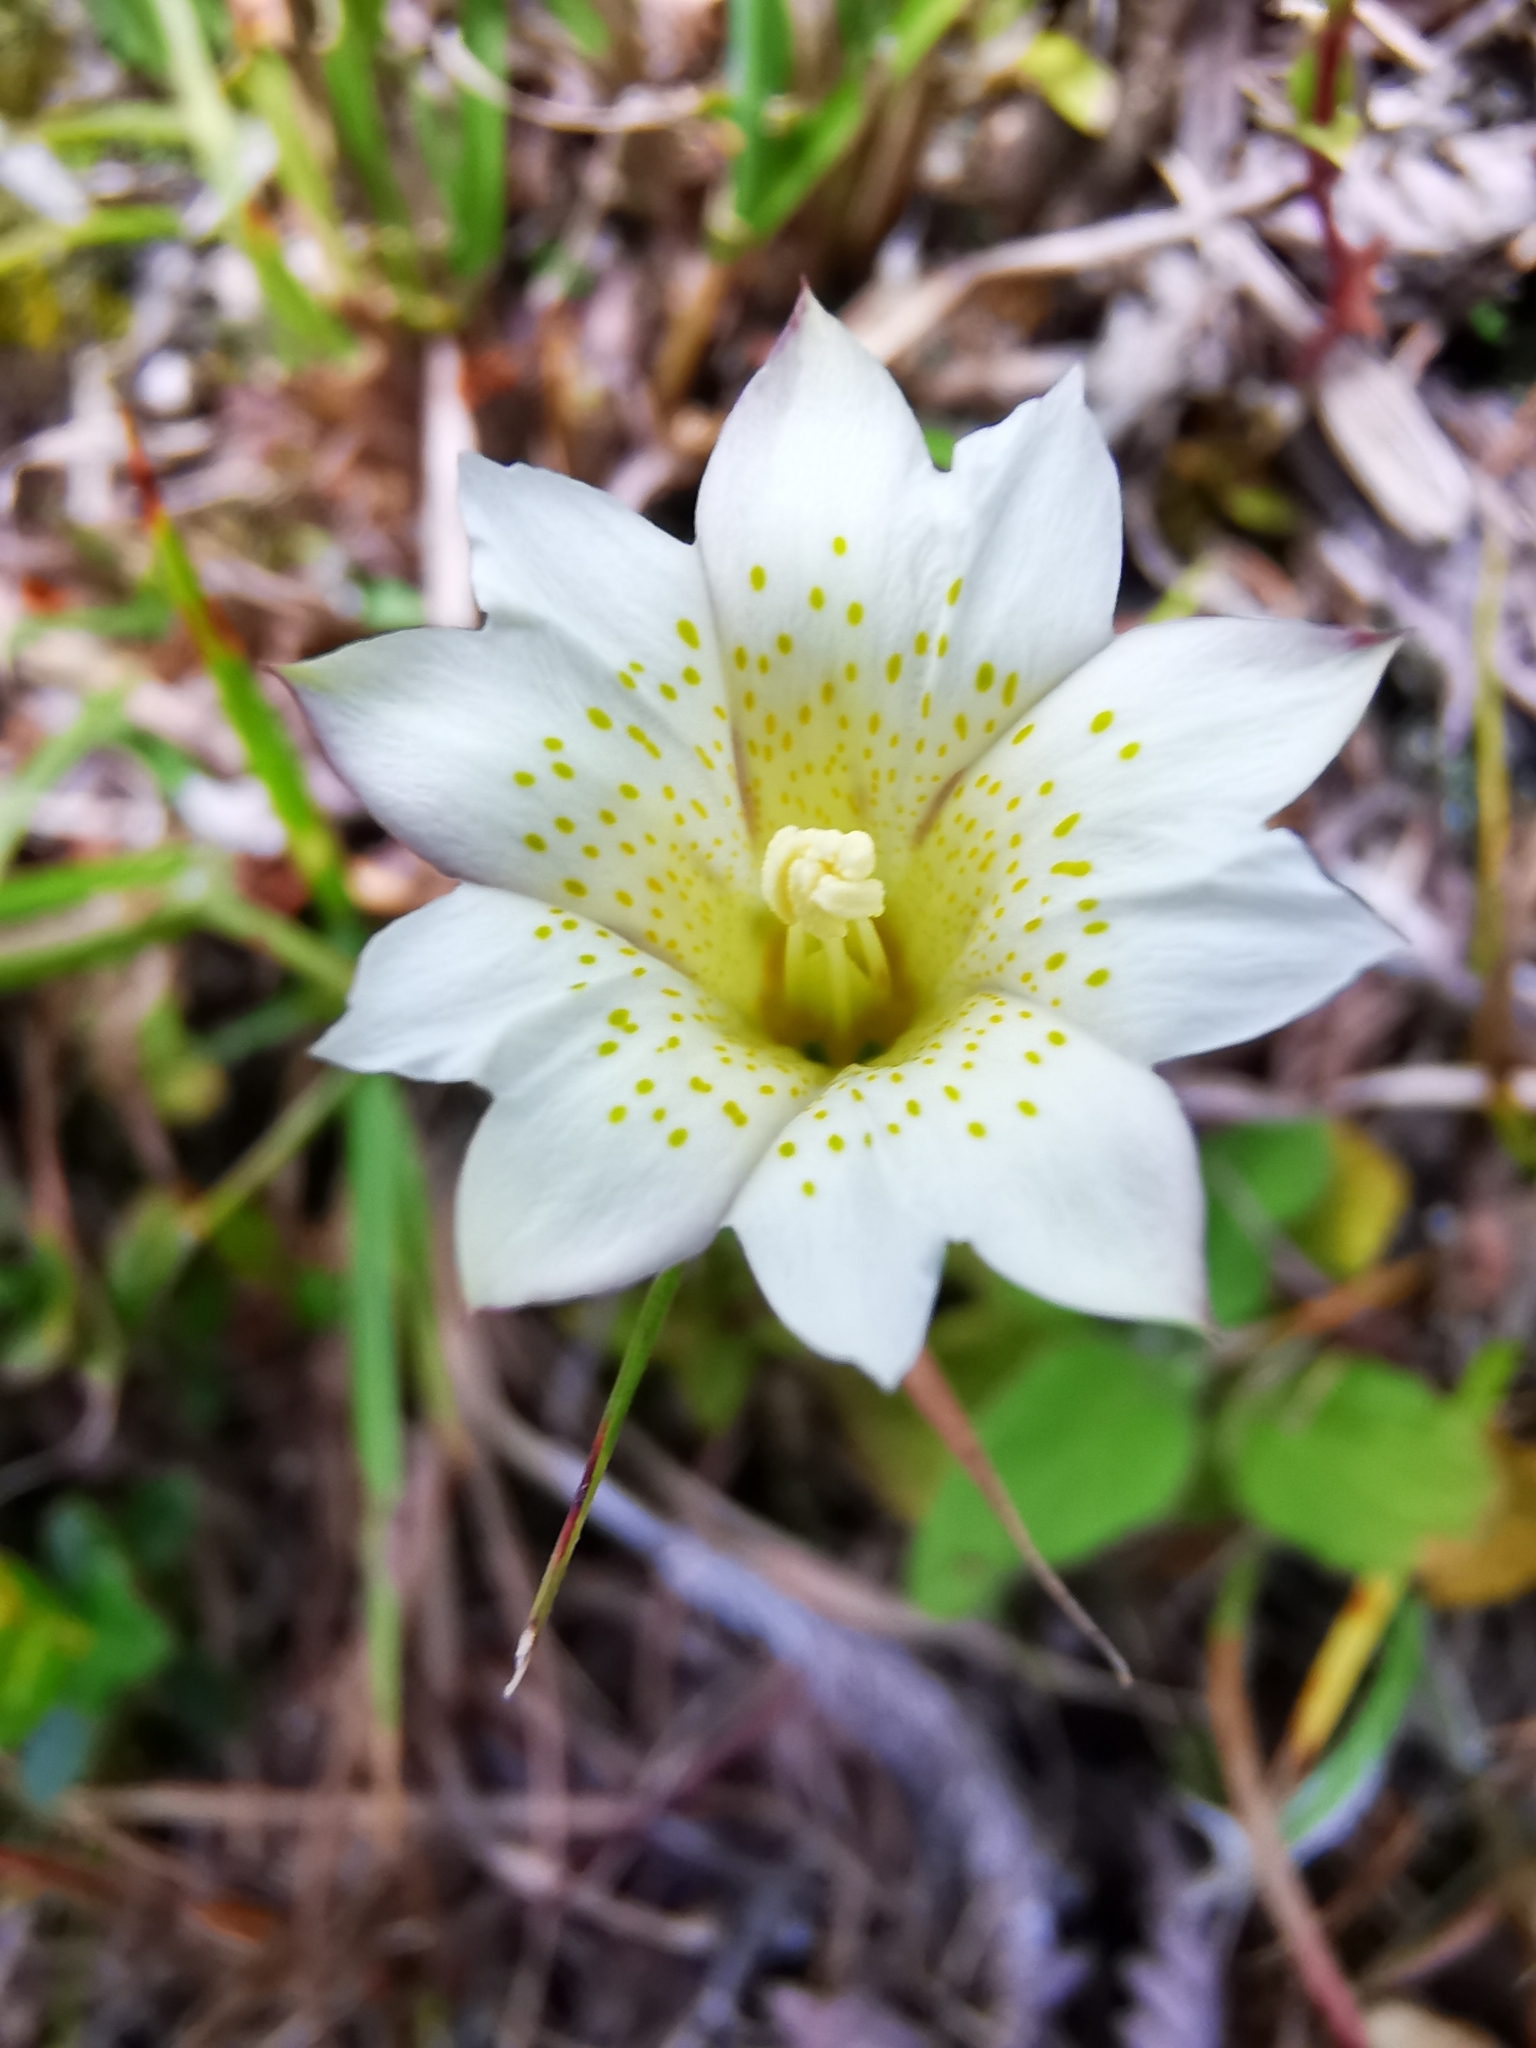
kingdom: Plantae
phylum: Tracheophyta
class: Magnoliopsida
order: Gentianales
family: Gentianaceae
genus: Gentiana
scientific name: Gentiana flavomaculata
